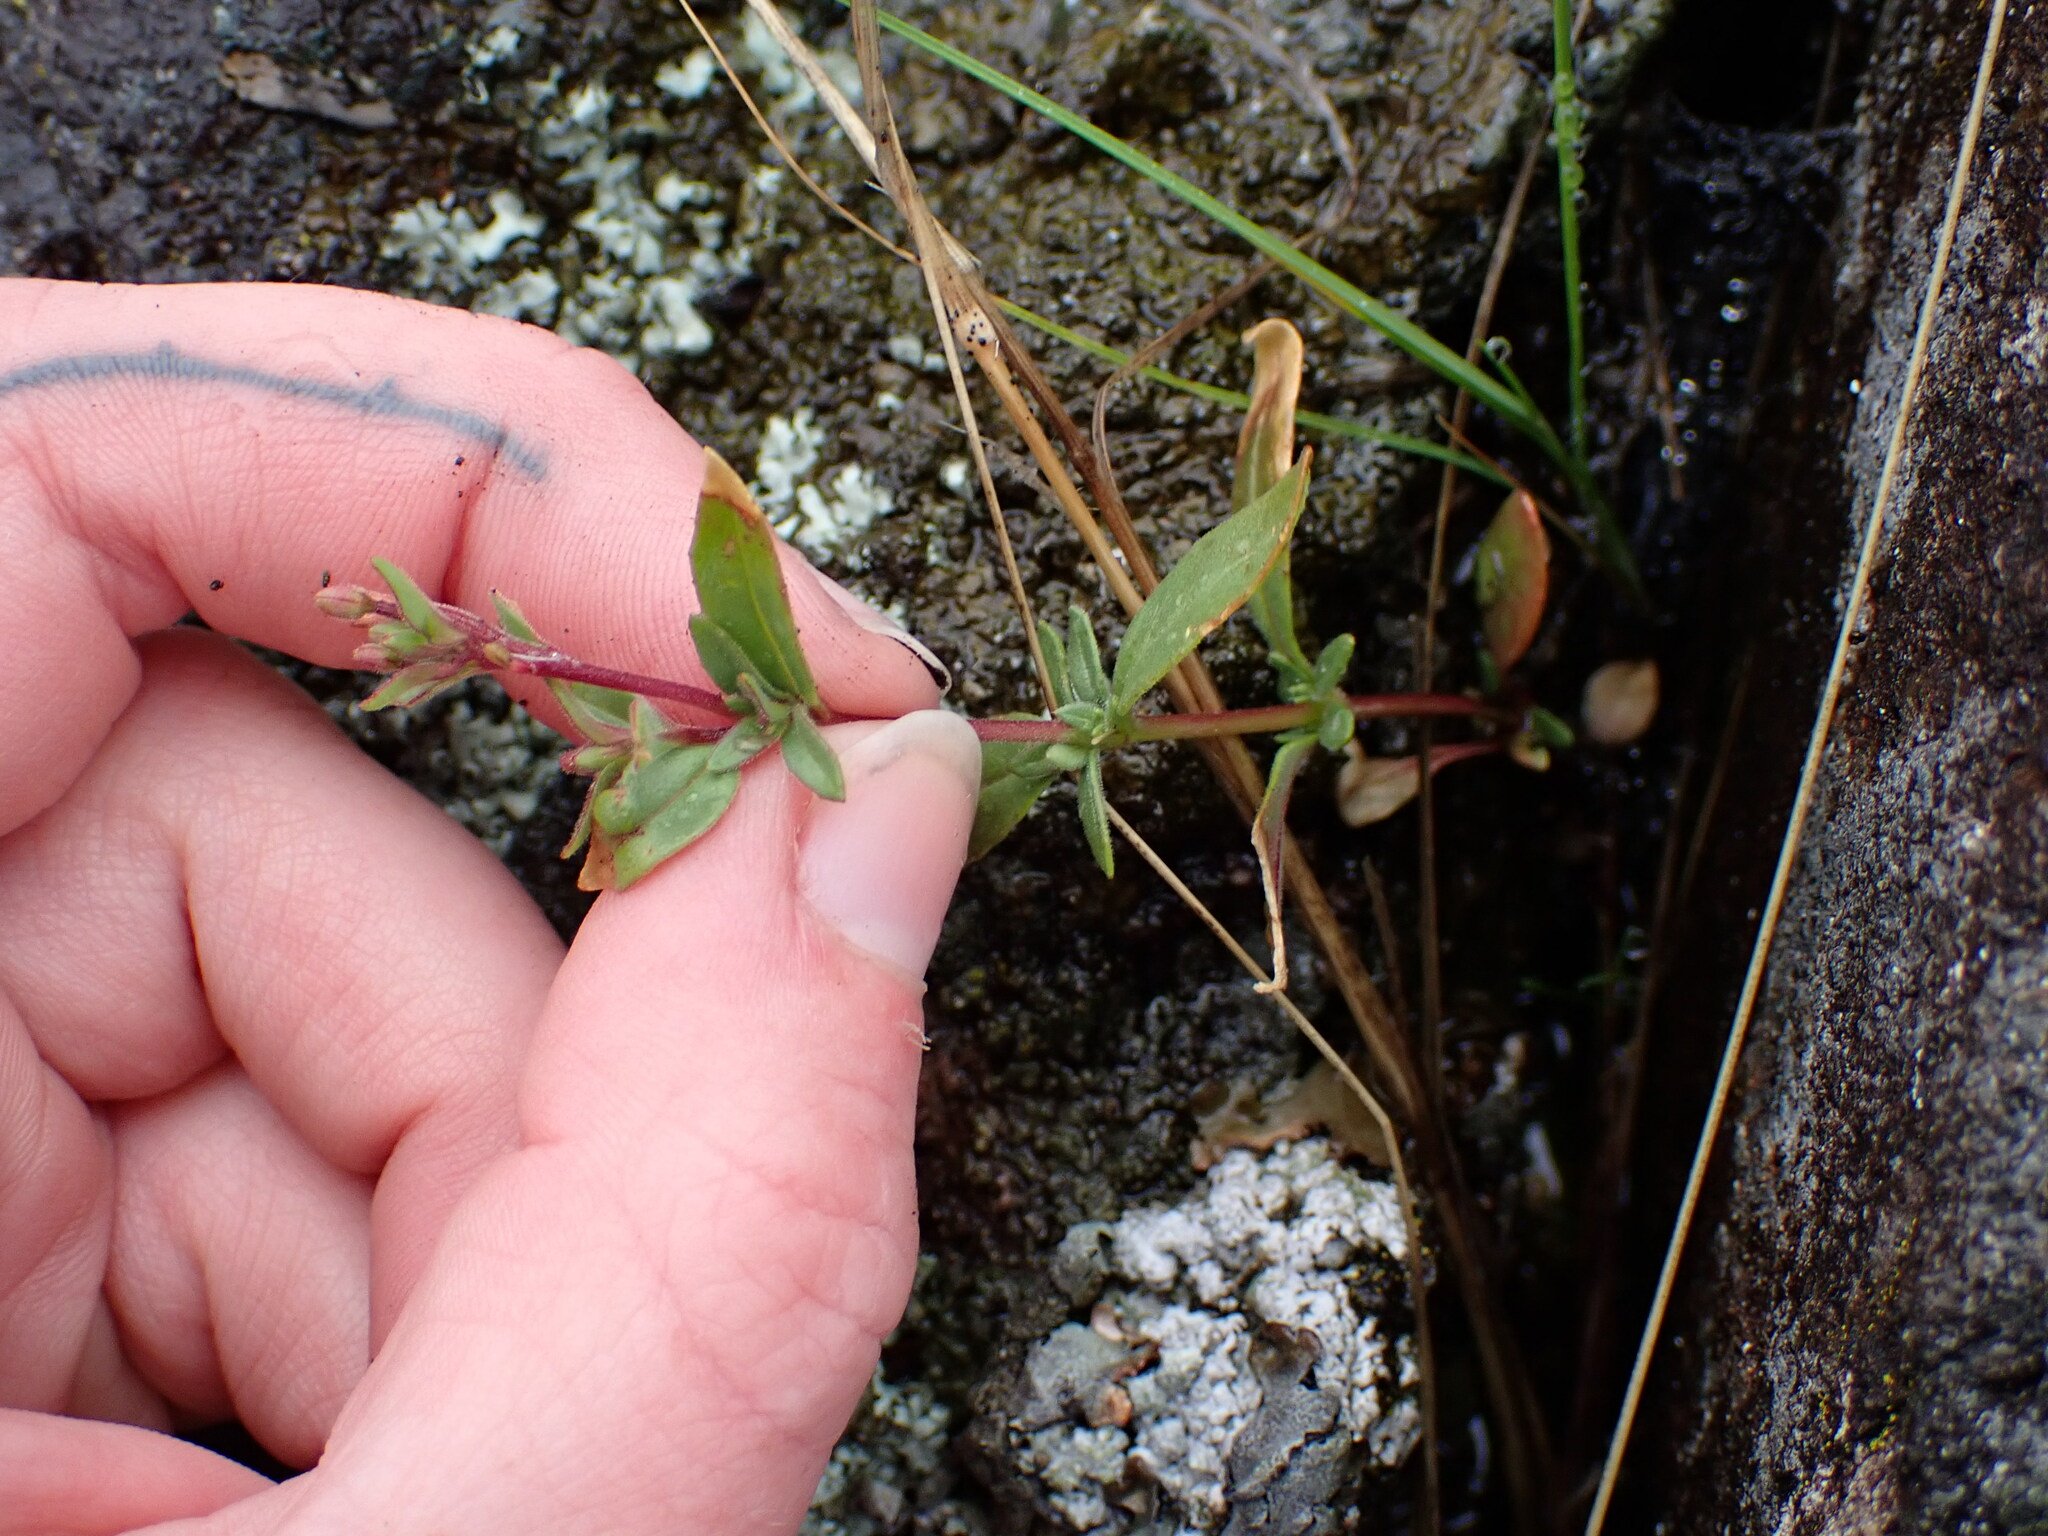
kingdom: Plantae
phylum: Tracheophyta
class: Magnoliopsida
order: Myrtales
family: Onagraceae
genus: Epilobium
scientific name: Epilobium minutum
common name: Chaparral willowherb
